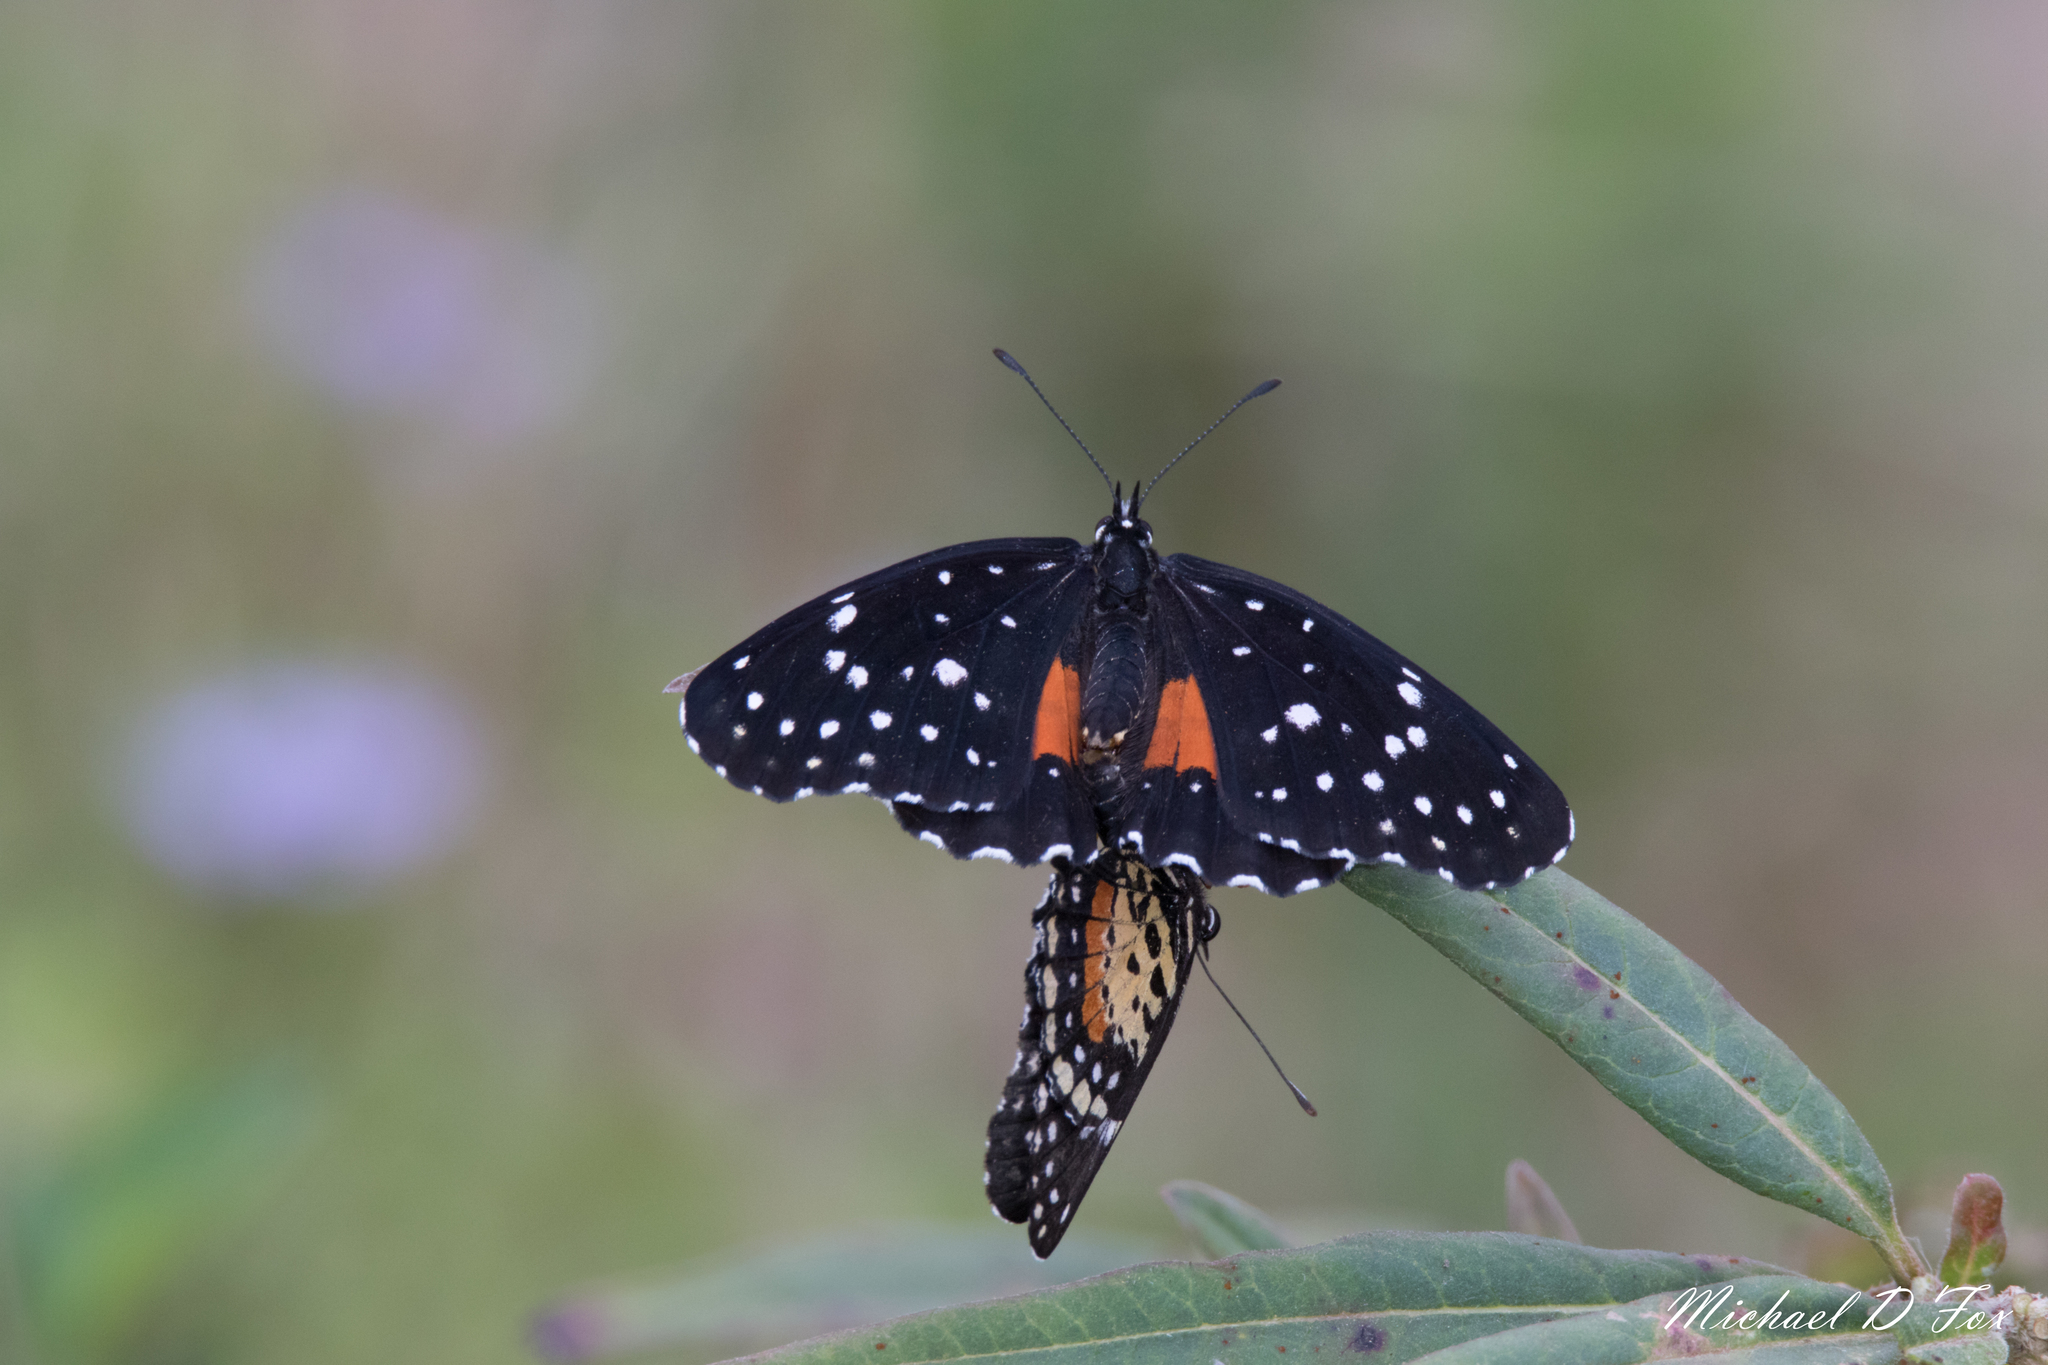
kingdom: Animalia
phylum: Arthropoda
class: Insecta
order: Lepidoptera
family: Nymphalidae
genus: Chlosyne
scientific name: Chlosyne janais
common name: Crimson patch
